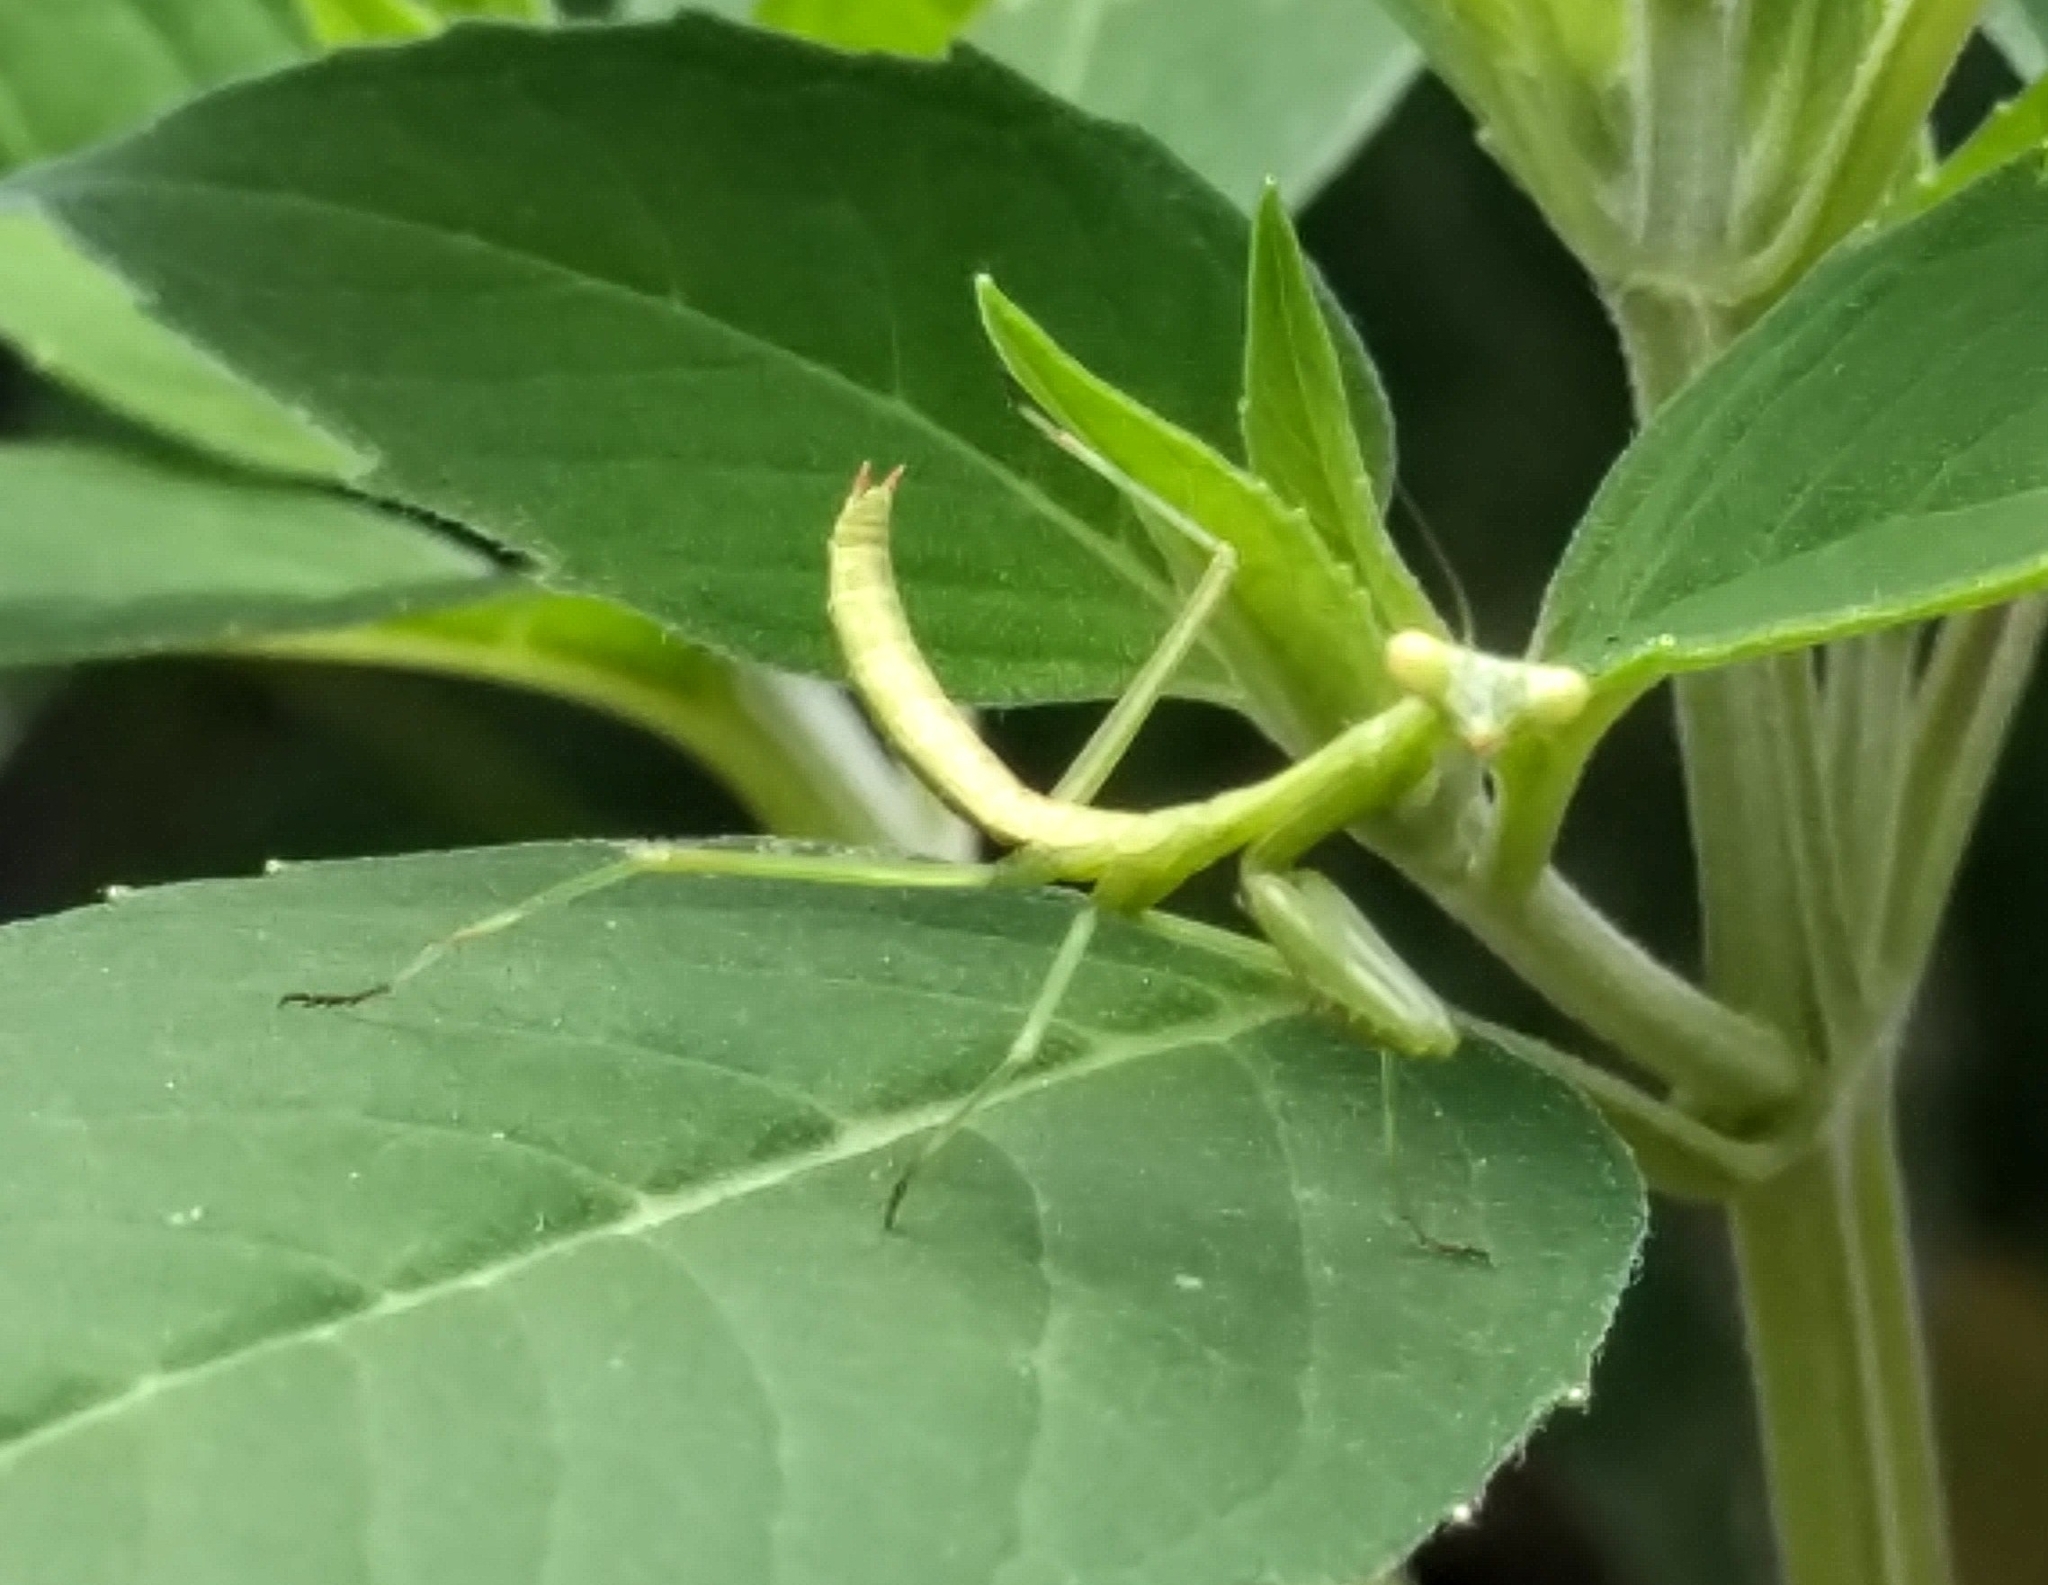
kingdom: Animalia
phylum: Arthropoda
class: Insecta
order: Mantodea
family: Mantidae
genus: Stagmomantis
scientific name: Stagmomantis carolina
